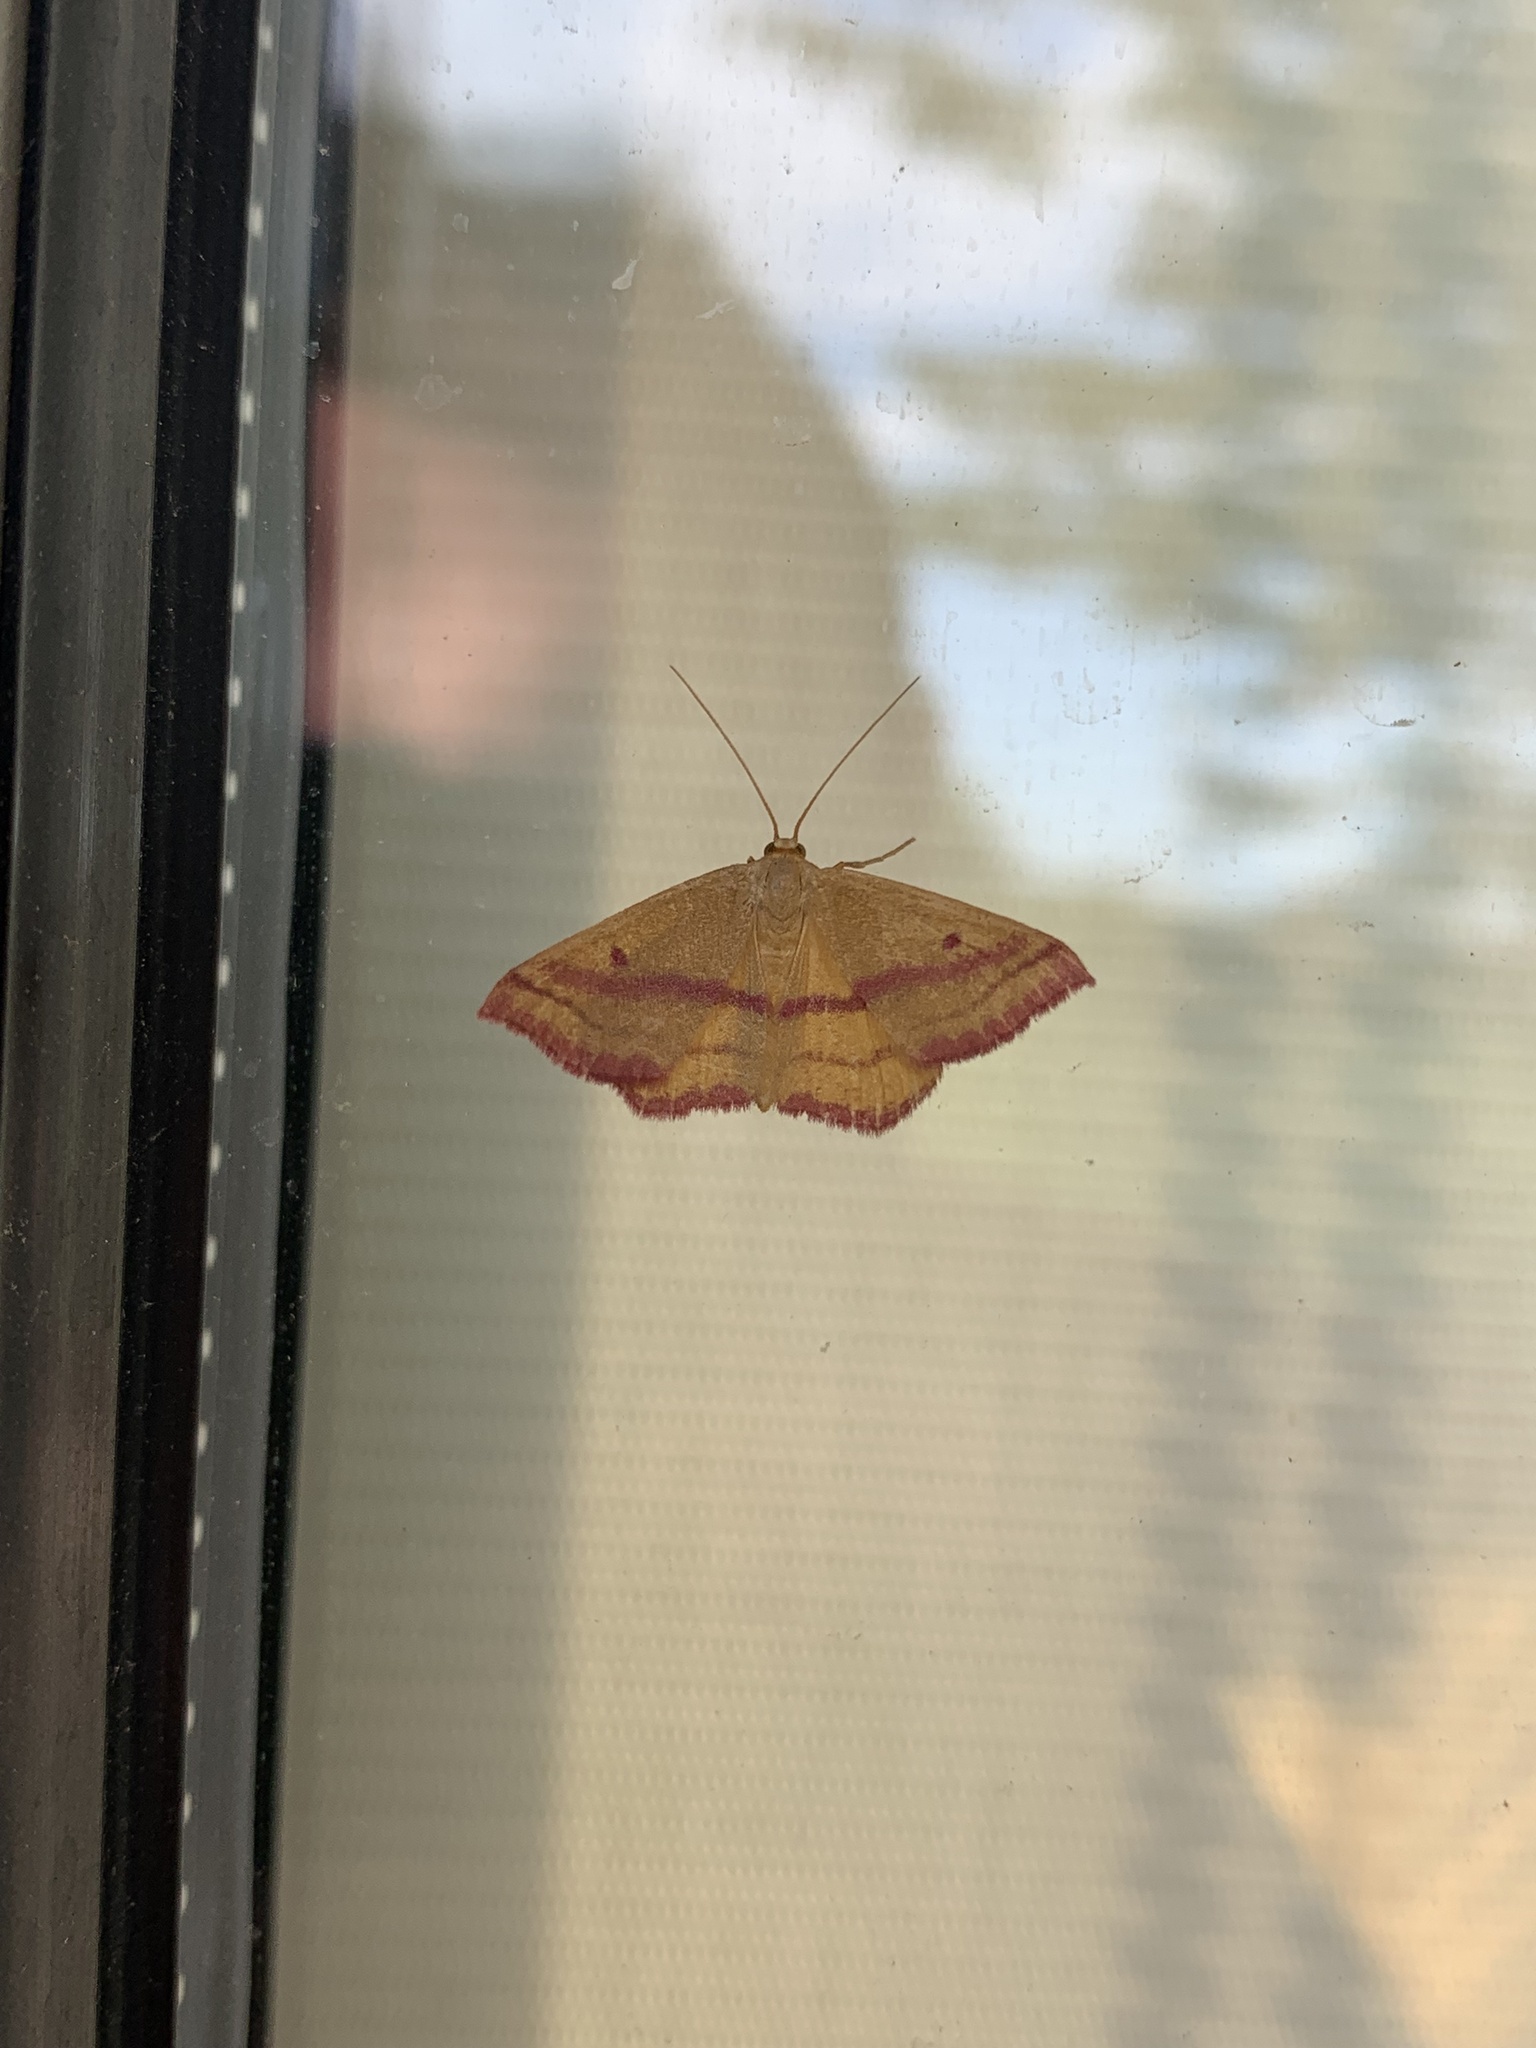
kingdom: Animalia
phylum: Arthropoda
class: Insecta
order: Lepidoptera
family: Geometridae
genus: Haematopis
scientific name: Haematopis grataria
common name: Chickweed geometer
